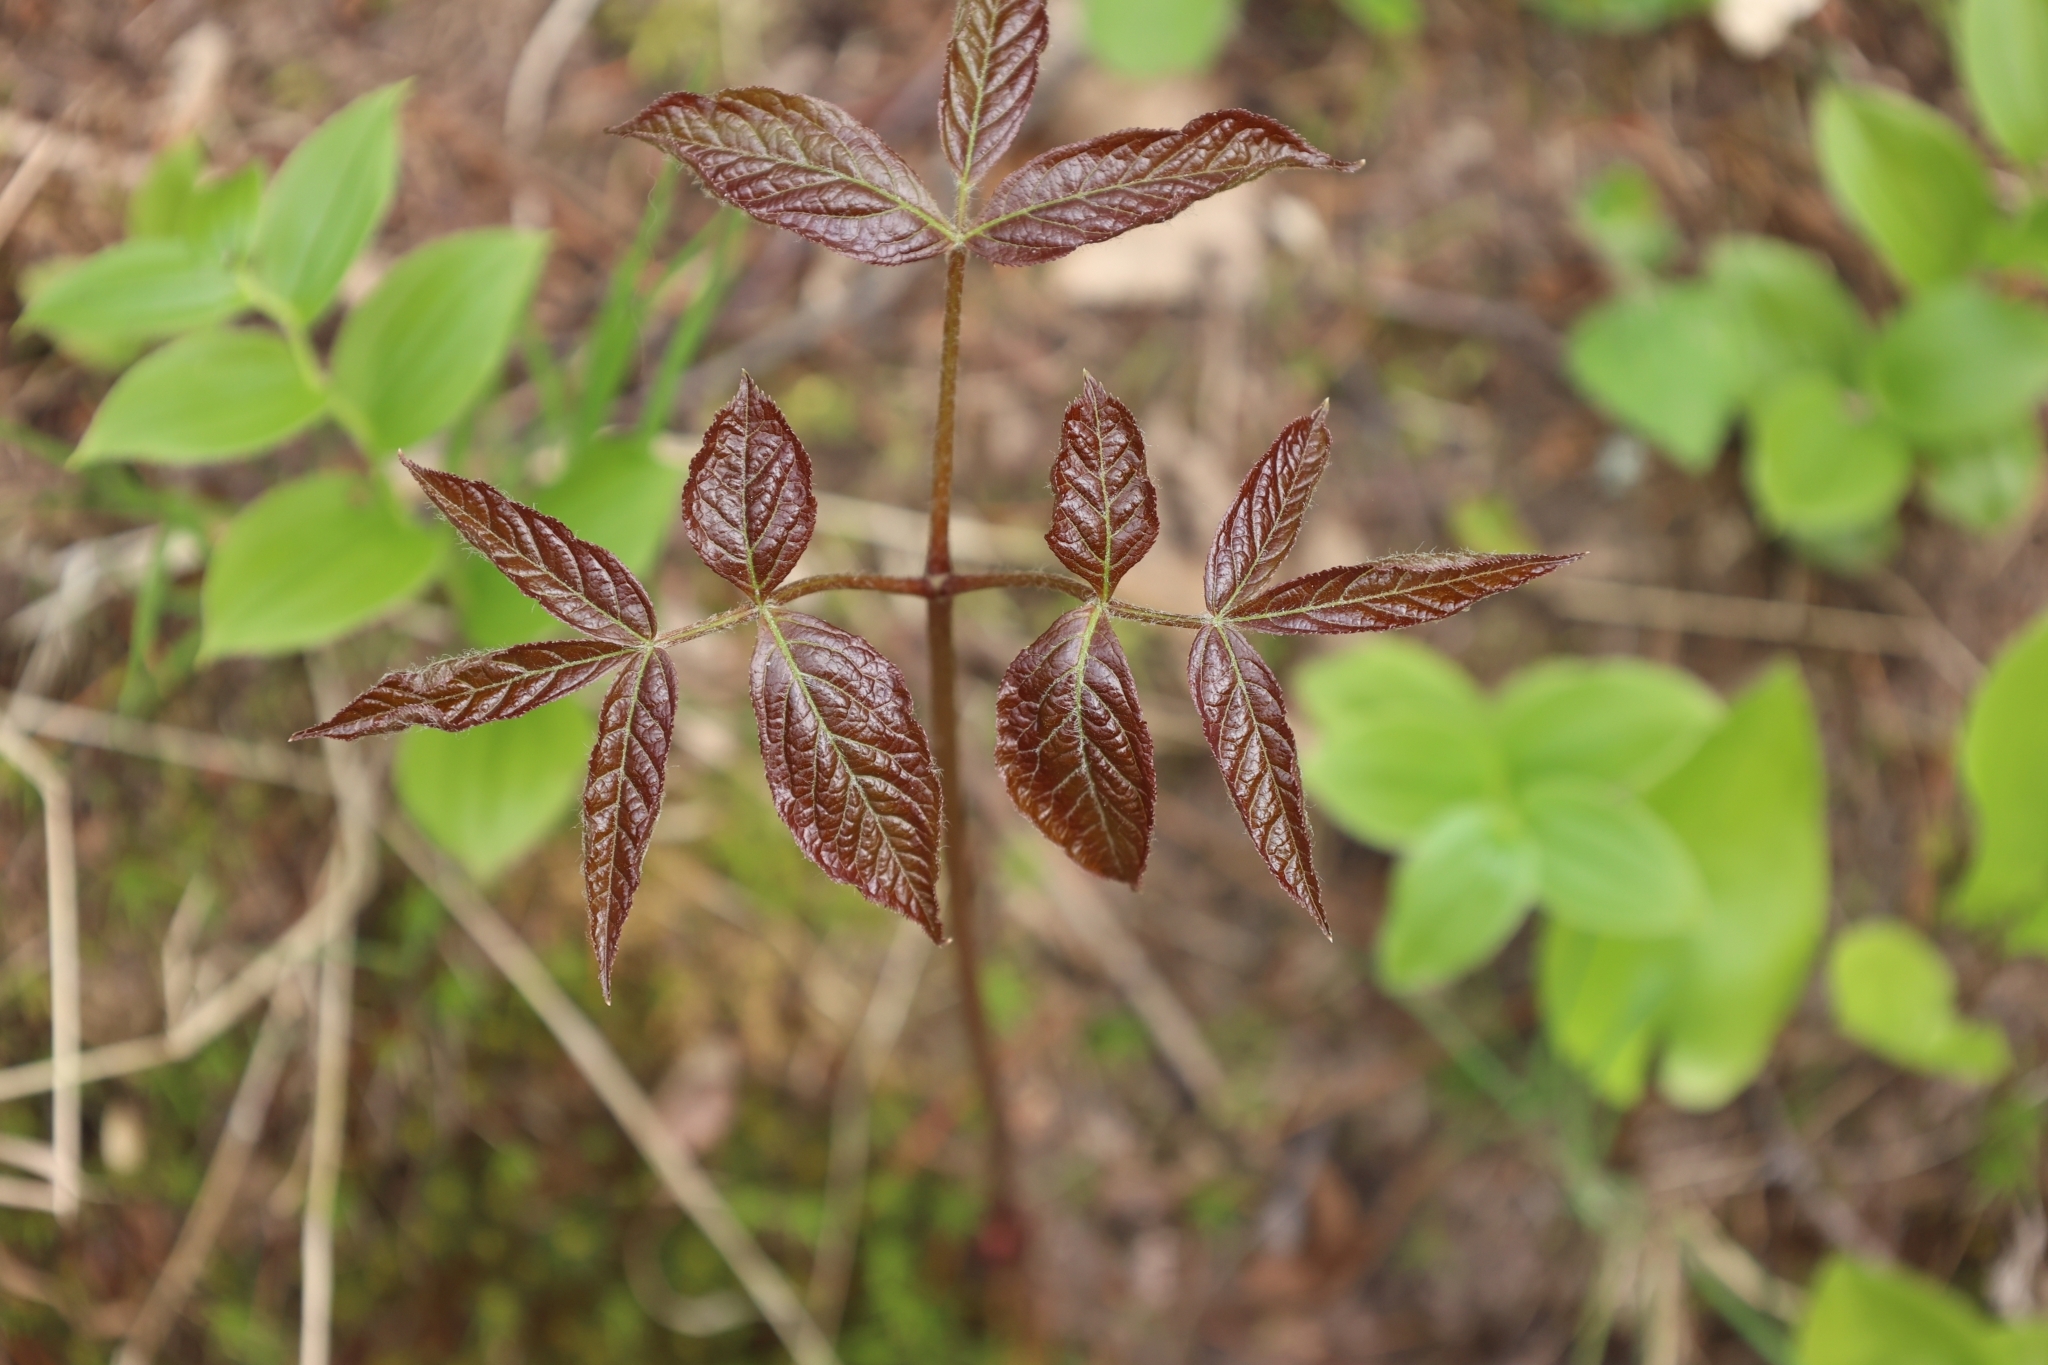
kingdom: Plantae
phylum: Tracheophyta
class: Magnoliopsida
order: Apiales
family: Araliaceae
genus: Aralia
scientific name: Aralia nudicaulis
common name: Wild sarsaparilla
